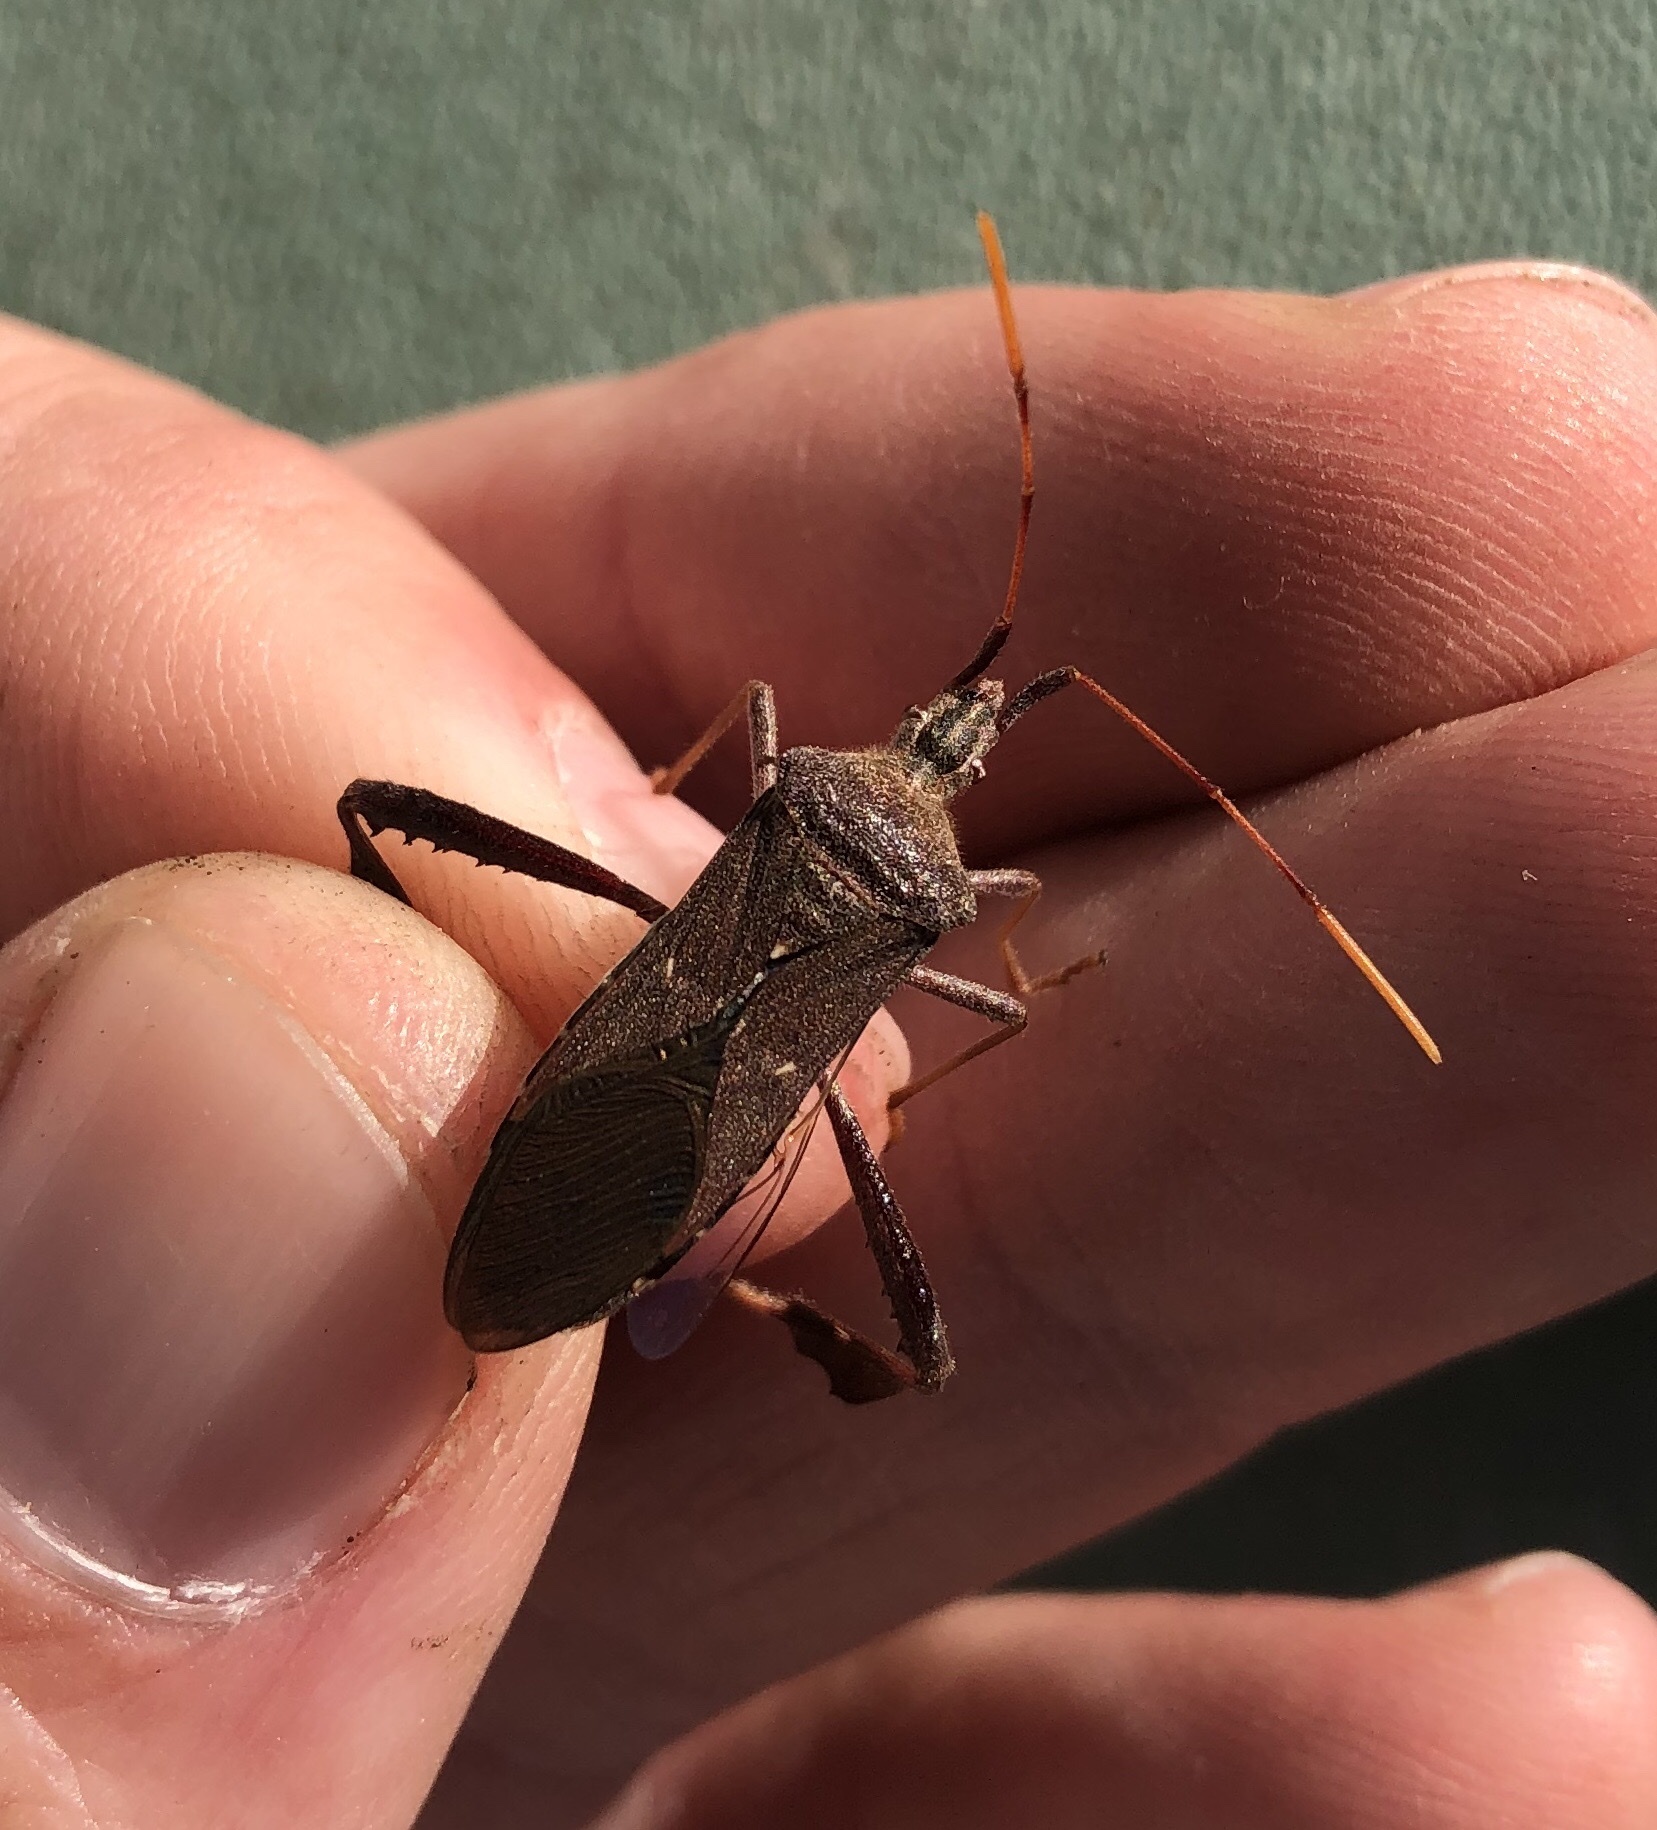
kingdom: Animalia
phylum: Arthropoda
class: Insecta
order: Hemiptera
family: Coreidae
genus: Leptoglossus
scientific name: Leptoglossus oppositus
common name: Northern leaf-footed bug
